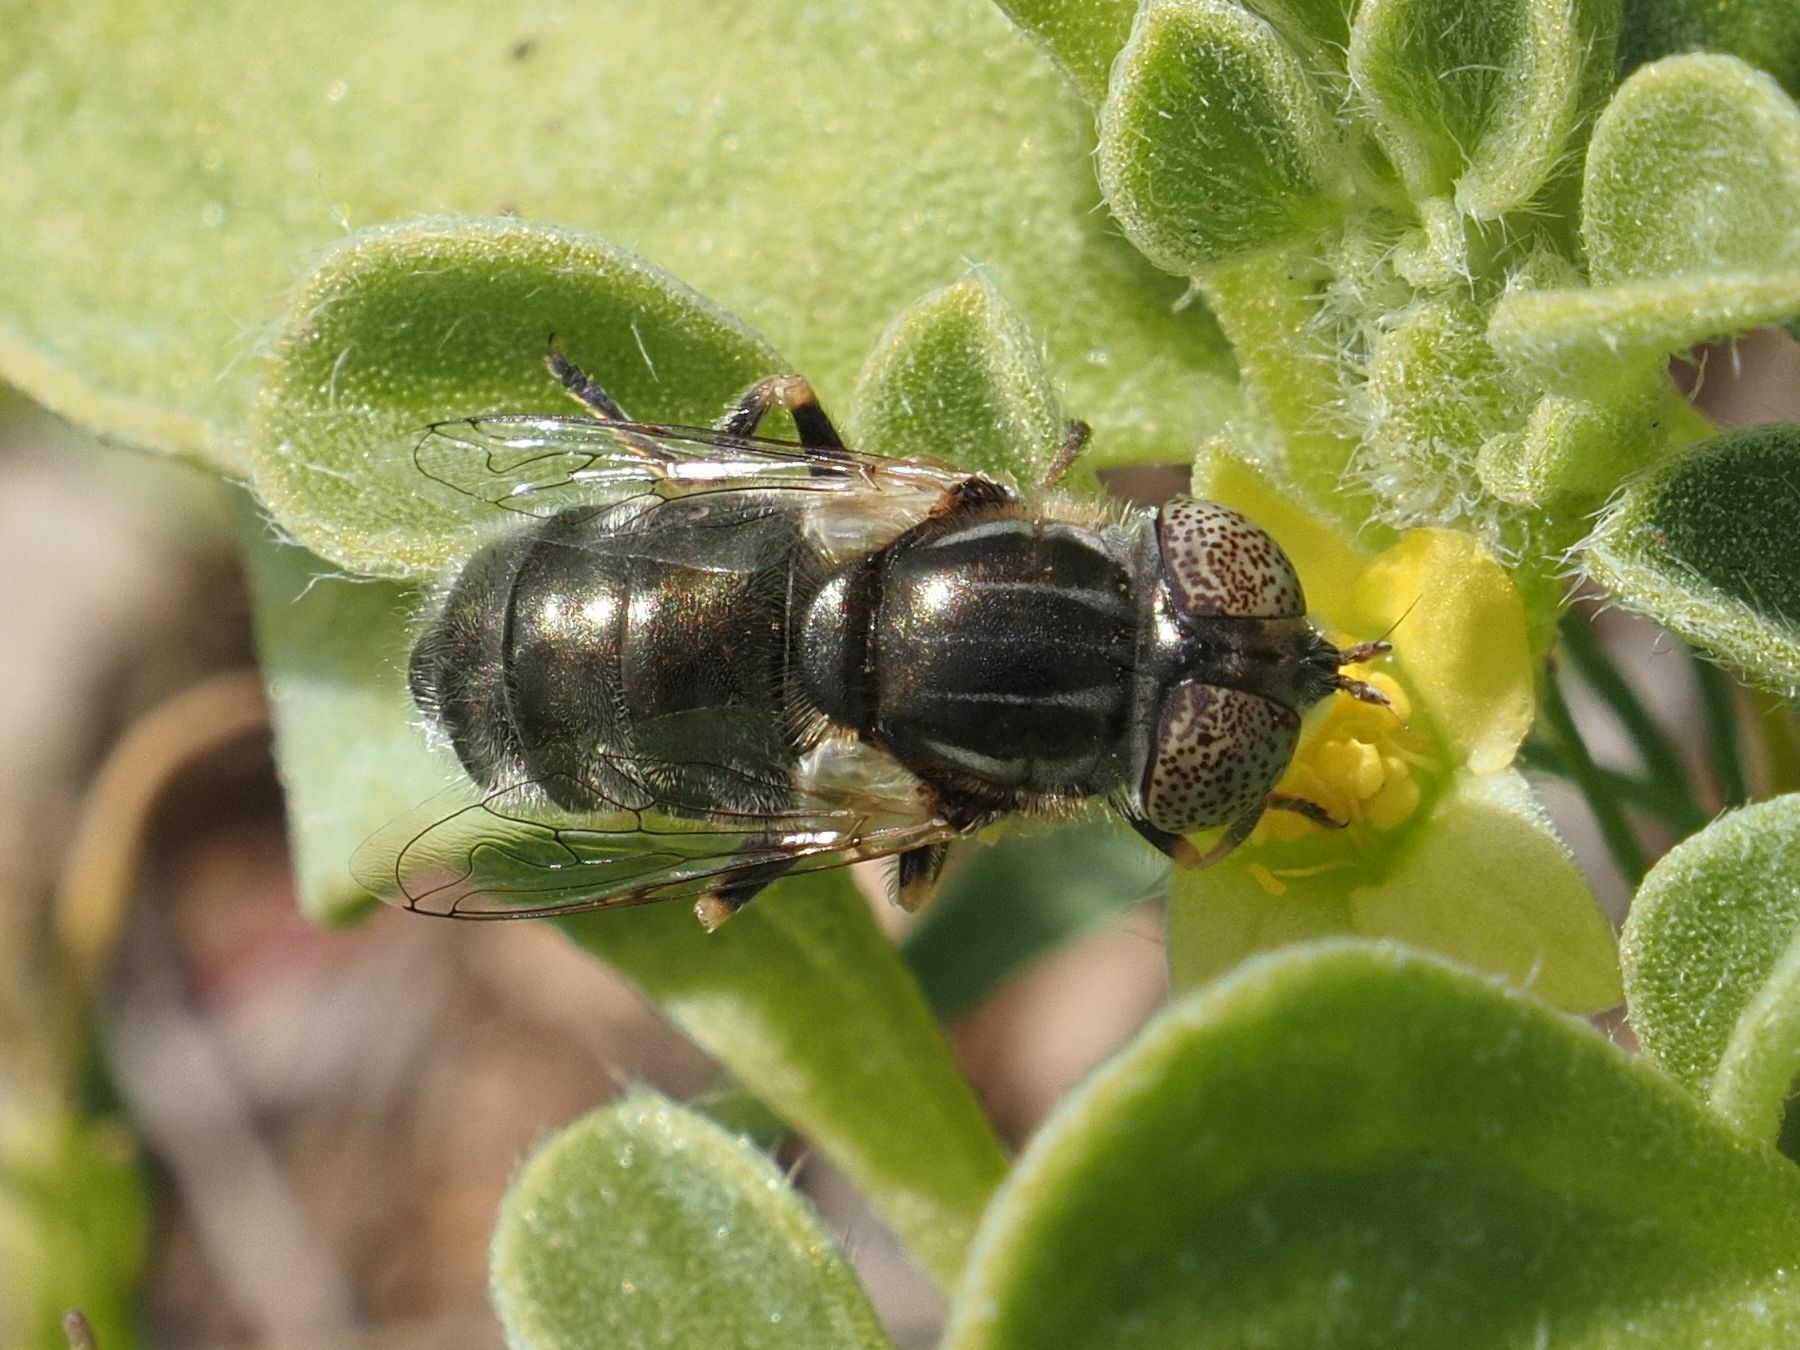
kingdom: Animalia
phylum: Arthropoda
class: Insecta
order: Diptera
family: Syrphidae
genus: Eristalinus
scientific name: Eristalinus aeneus
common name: Syrphid fly
